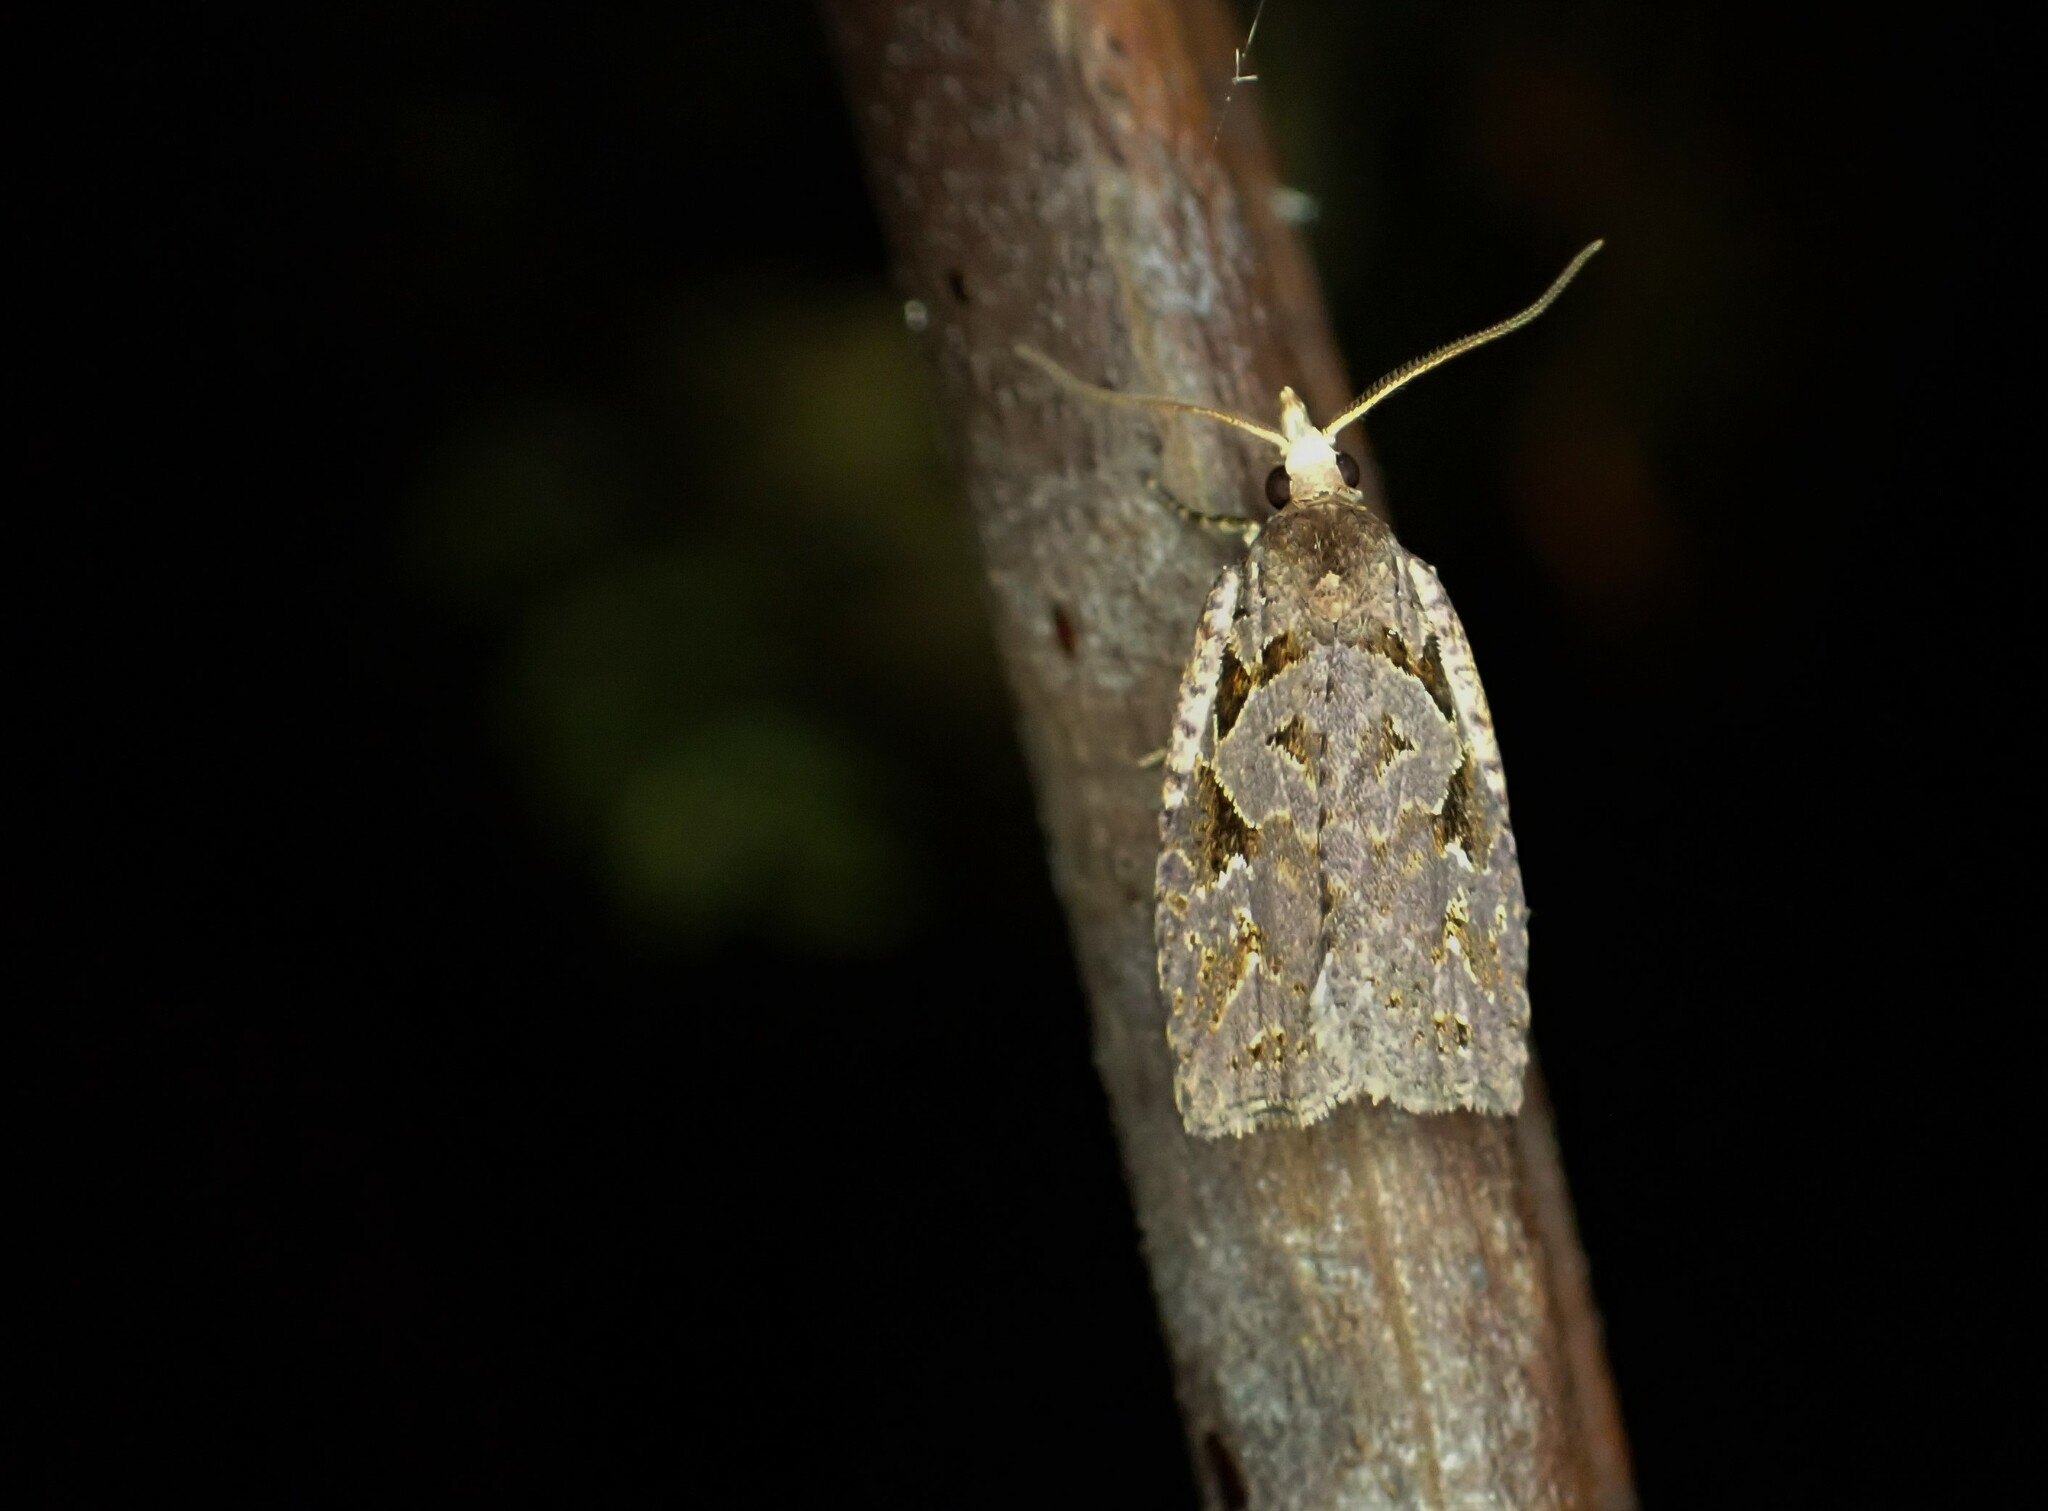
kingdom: Animalia
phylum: Arthropoda
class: Insecta
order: Lepidoptera
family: Tortricidae
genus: Ctenopseustis
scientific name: Ctenopseustis fraterna
